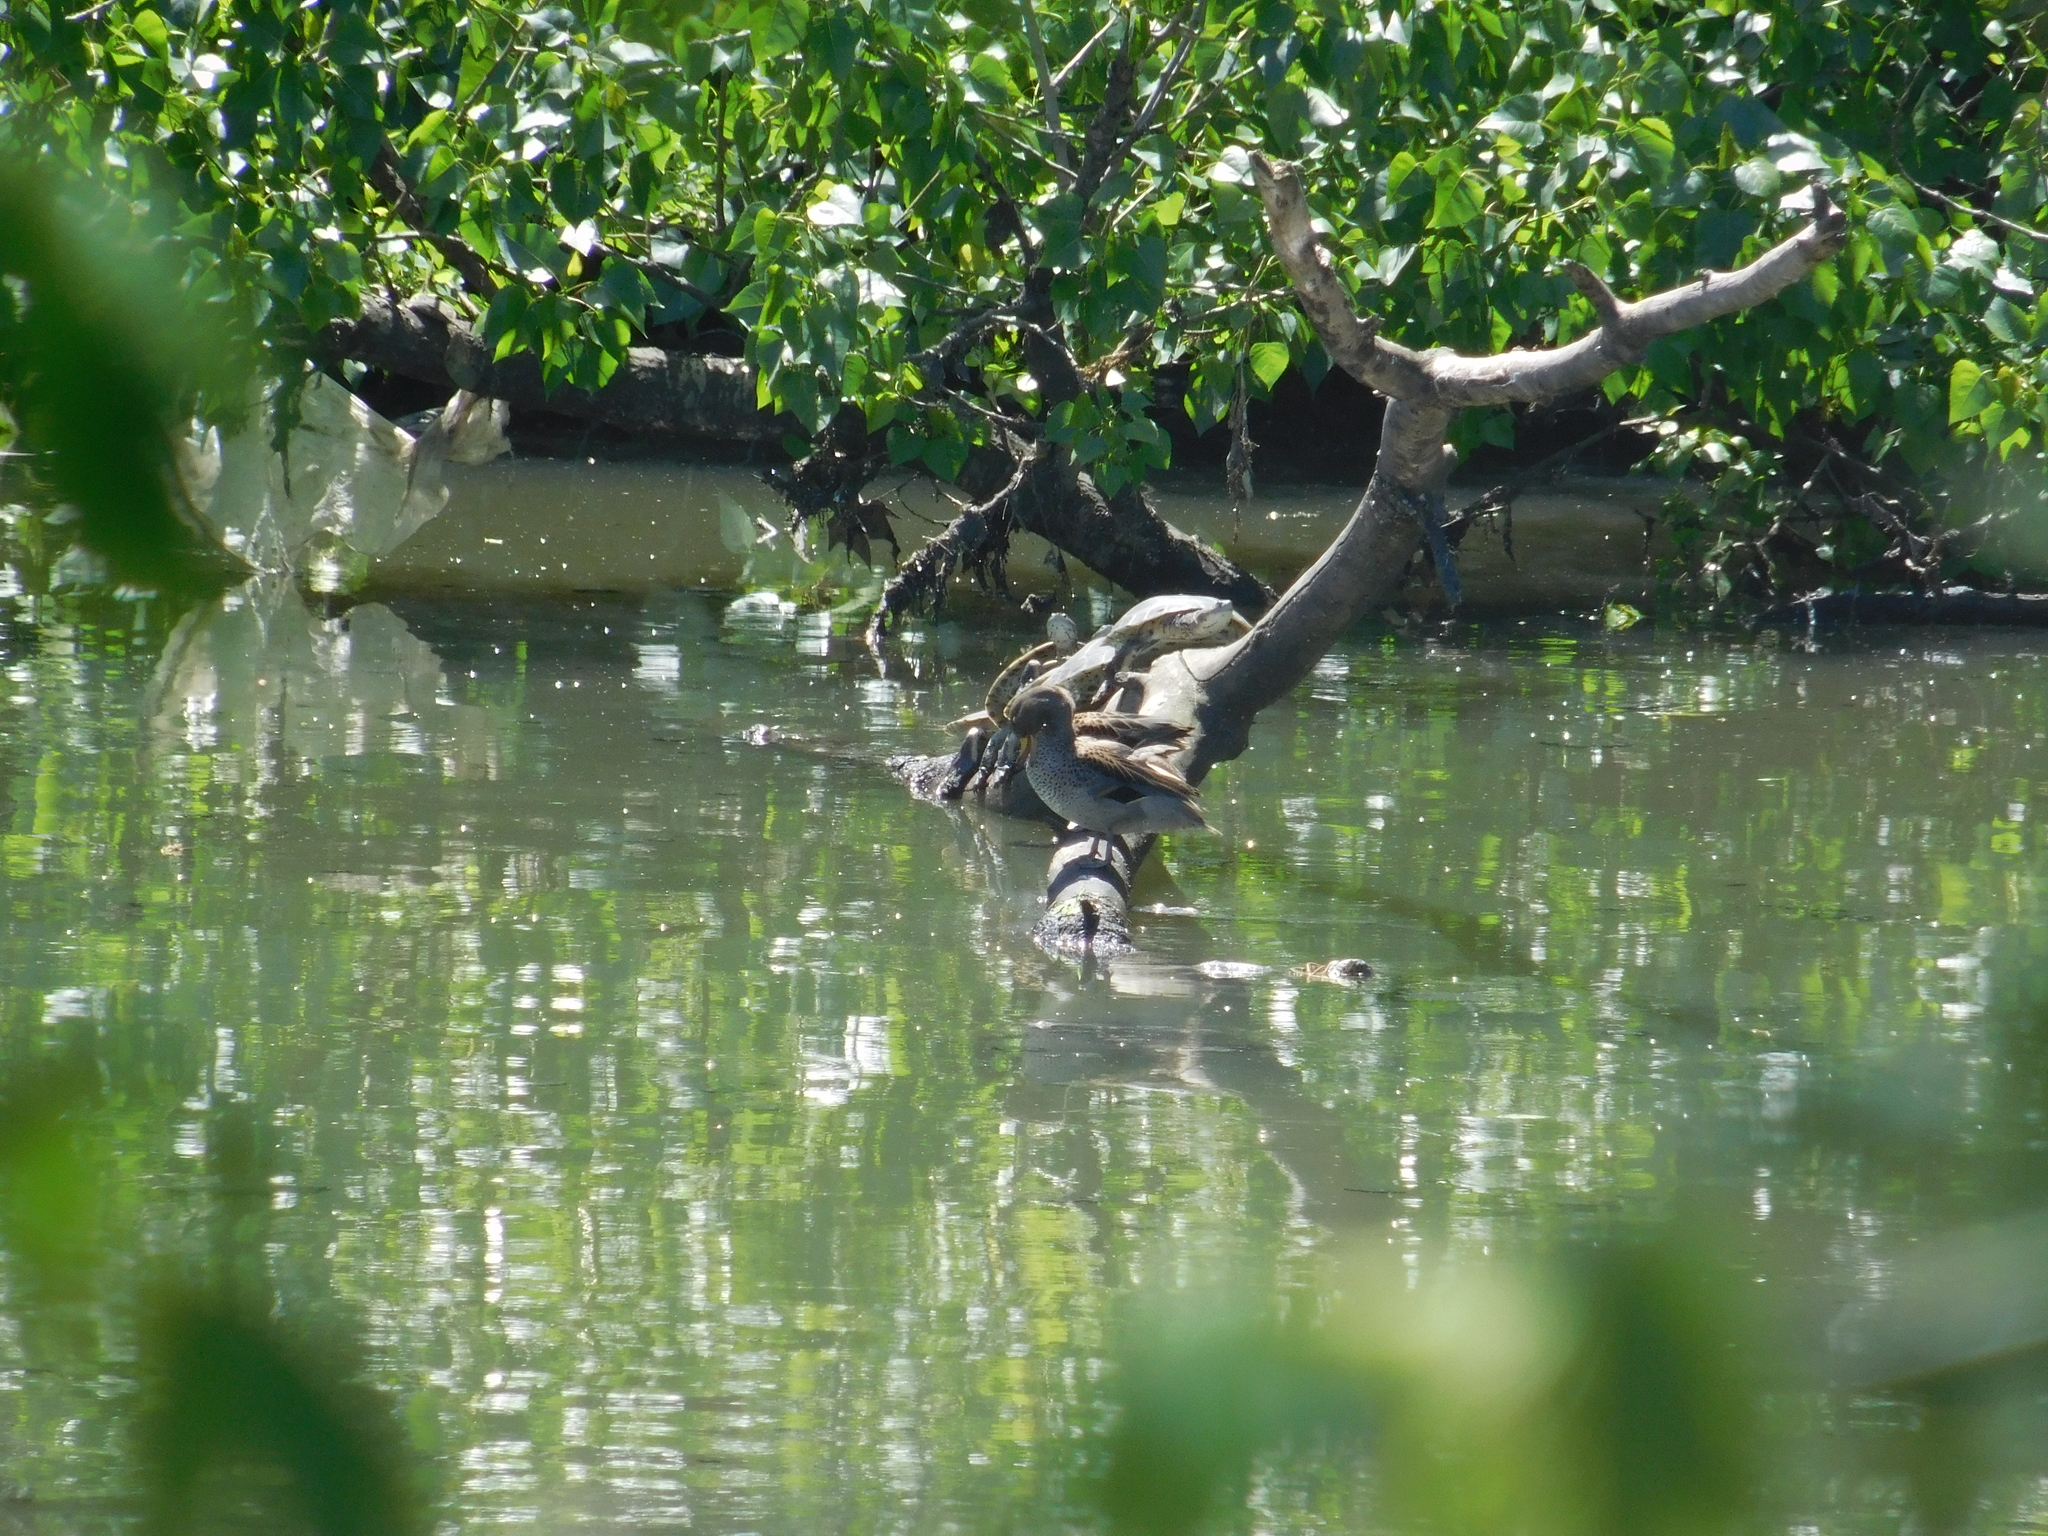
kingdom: Animalia
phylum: Chordata
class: Aves
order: Anseriformes
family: Anatidae
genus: Anas
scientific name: Anas flavirostris
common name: Yellow-billed teal
